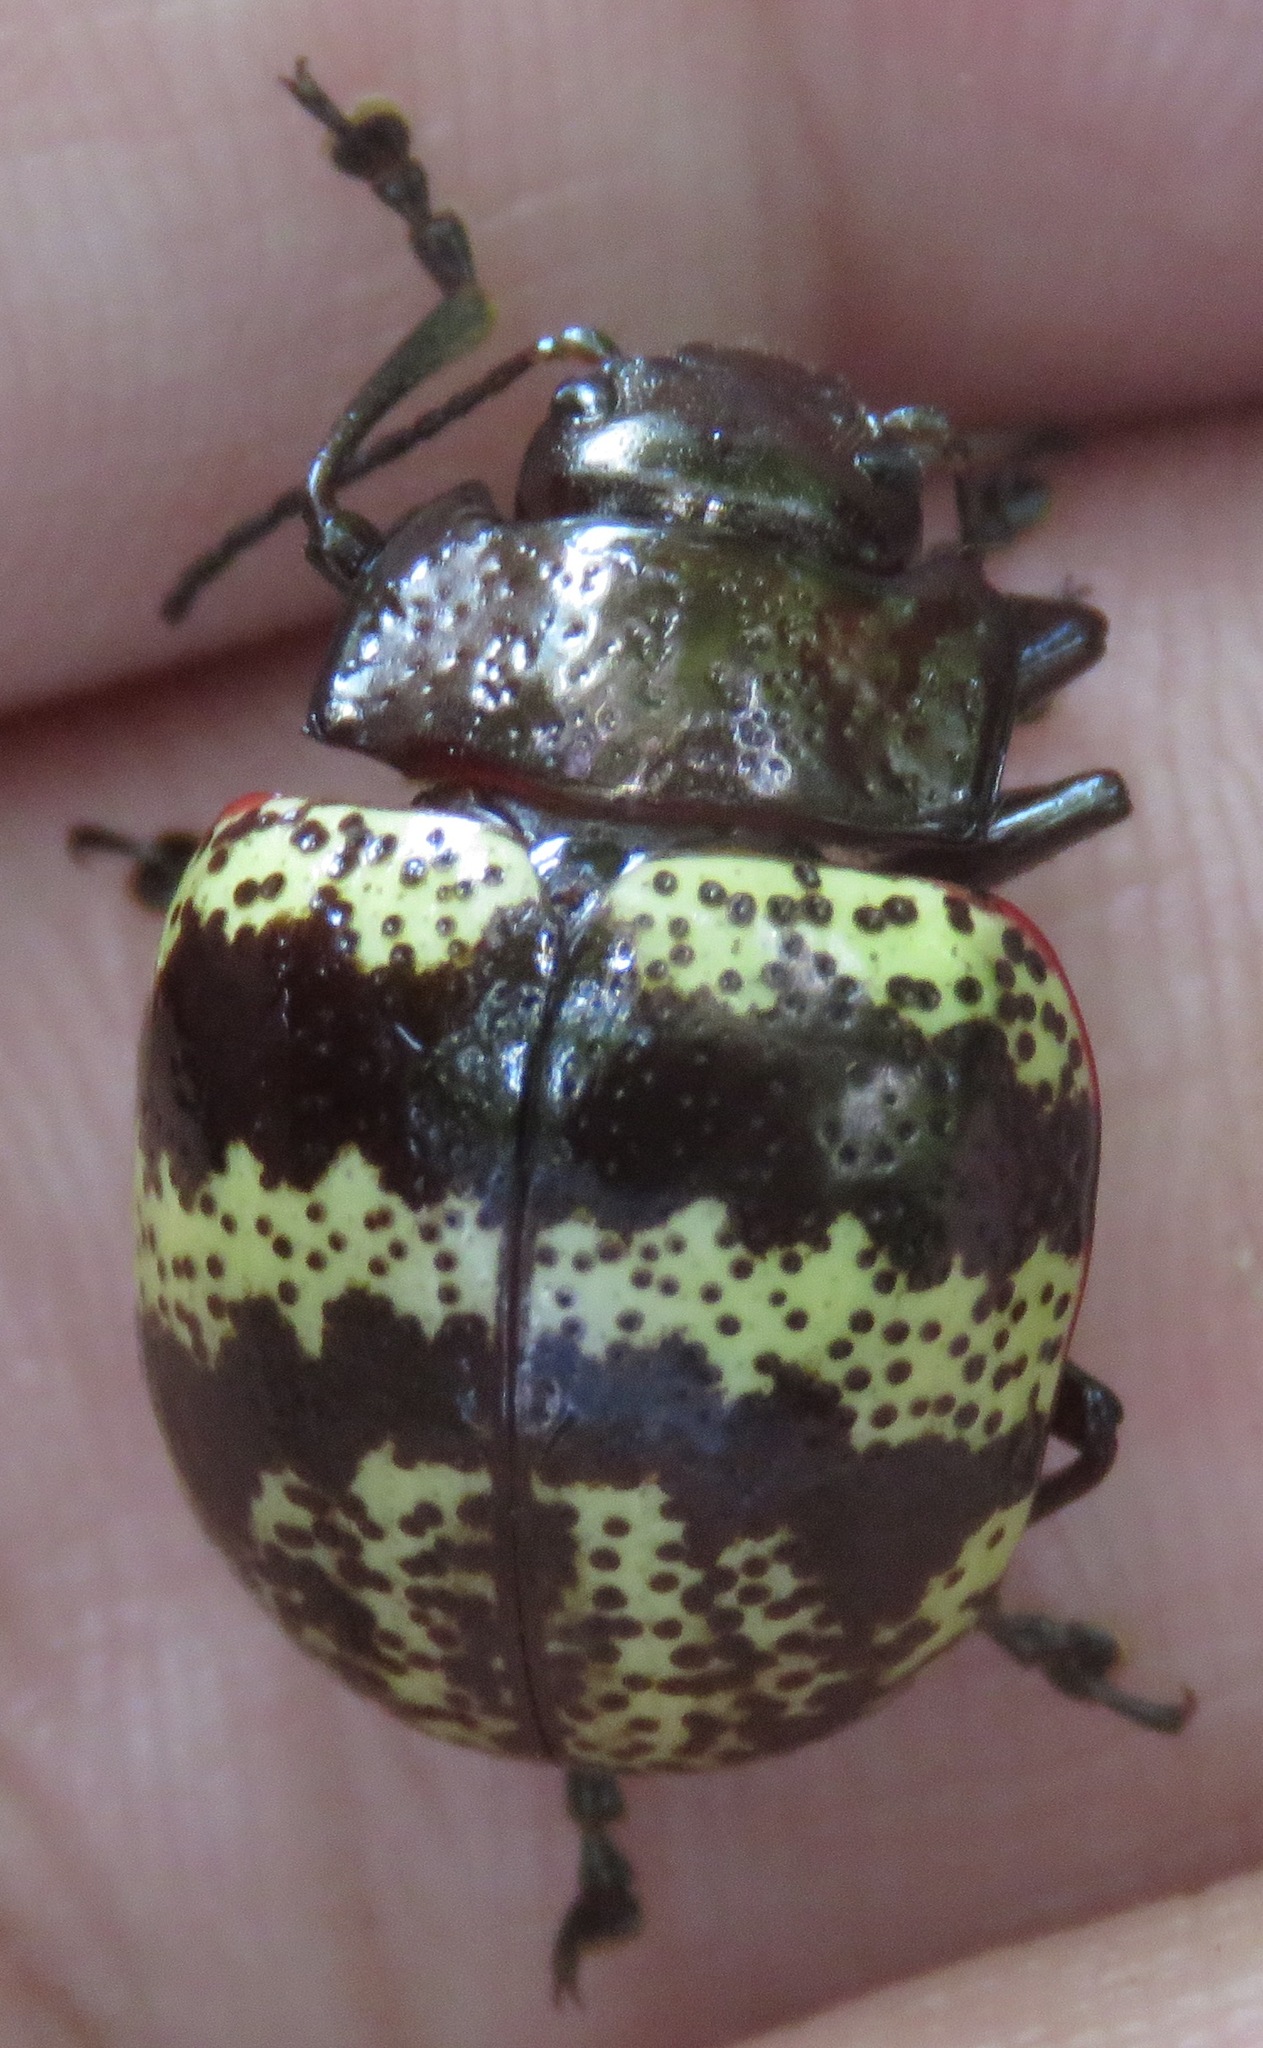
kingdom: Animalia
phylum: Arthropoda
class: Insecta
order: Coleoptera
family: Chrysomelidae
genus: Platyphora
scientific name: Platyphora petulans
